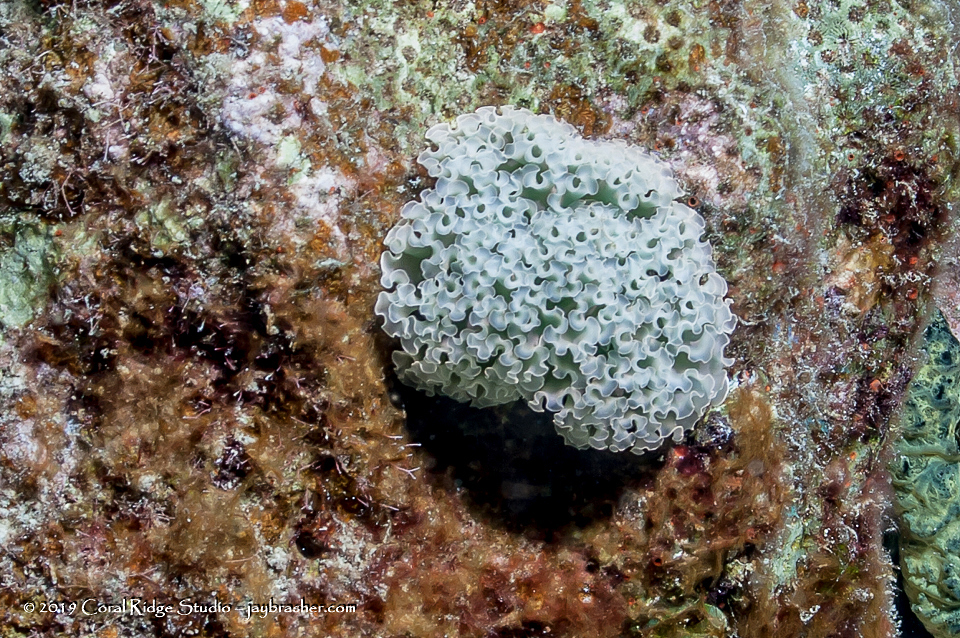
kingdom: Animalia
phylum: Mollusca
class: Gastropoda
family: Plakobranchidae
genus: Elysia
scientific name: Elysia crispata
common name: Lettuce slug
